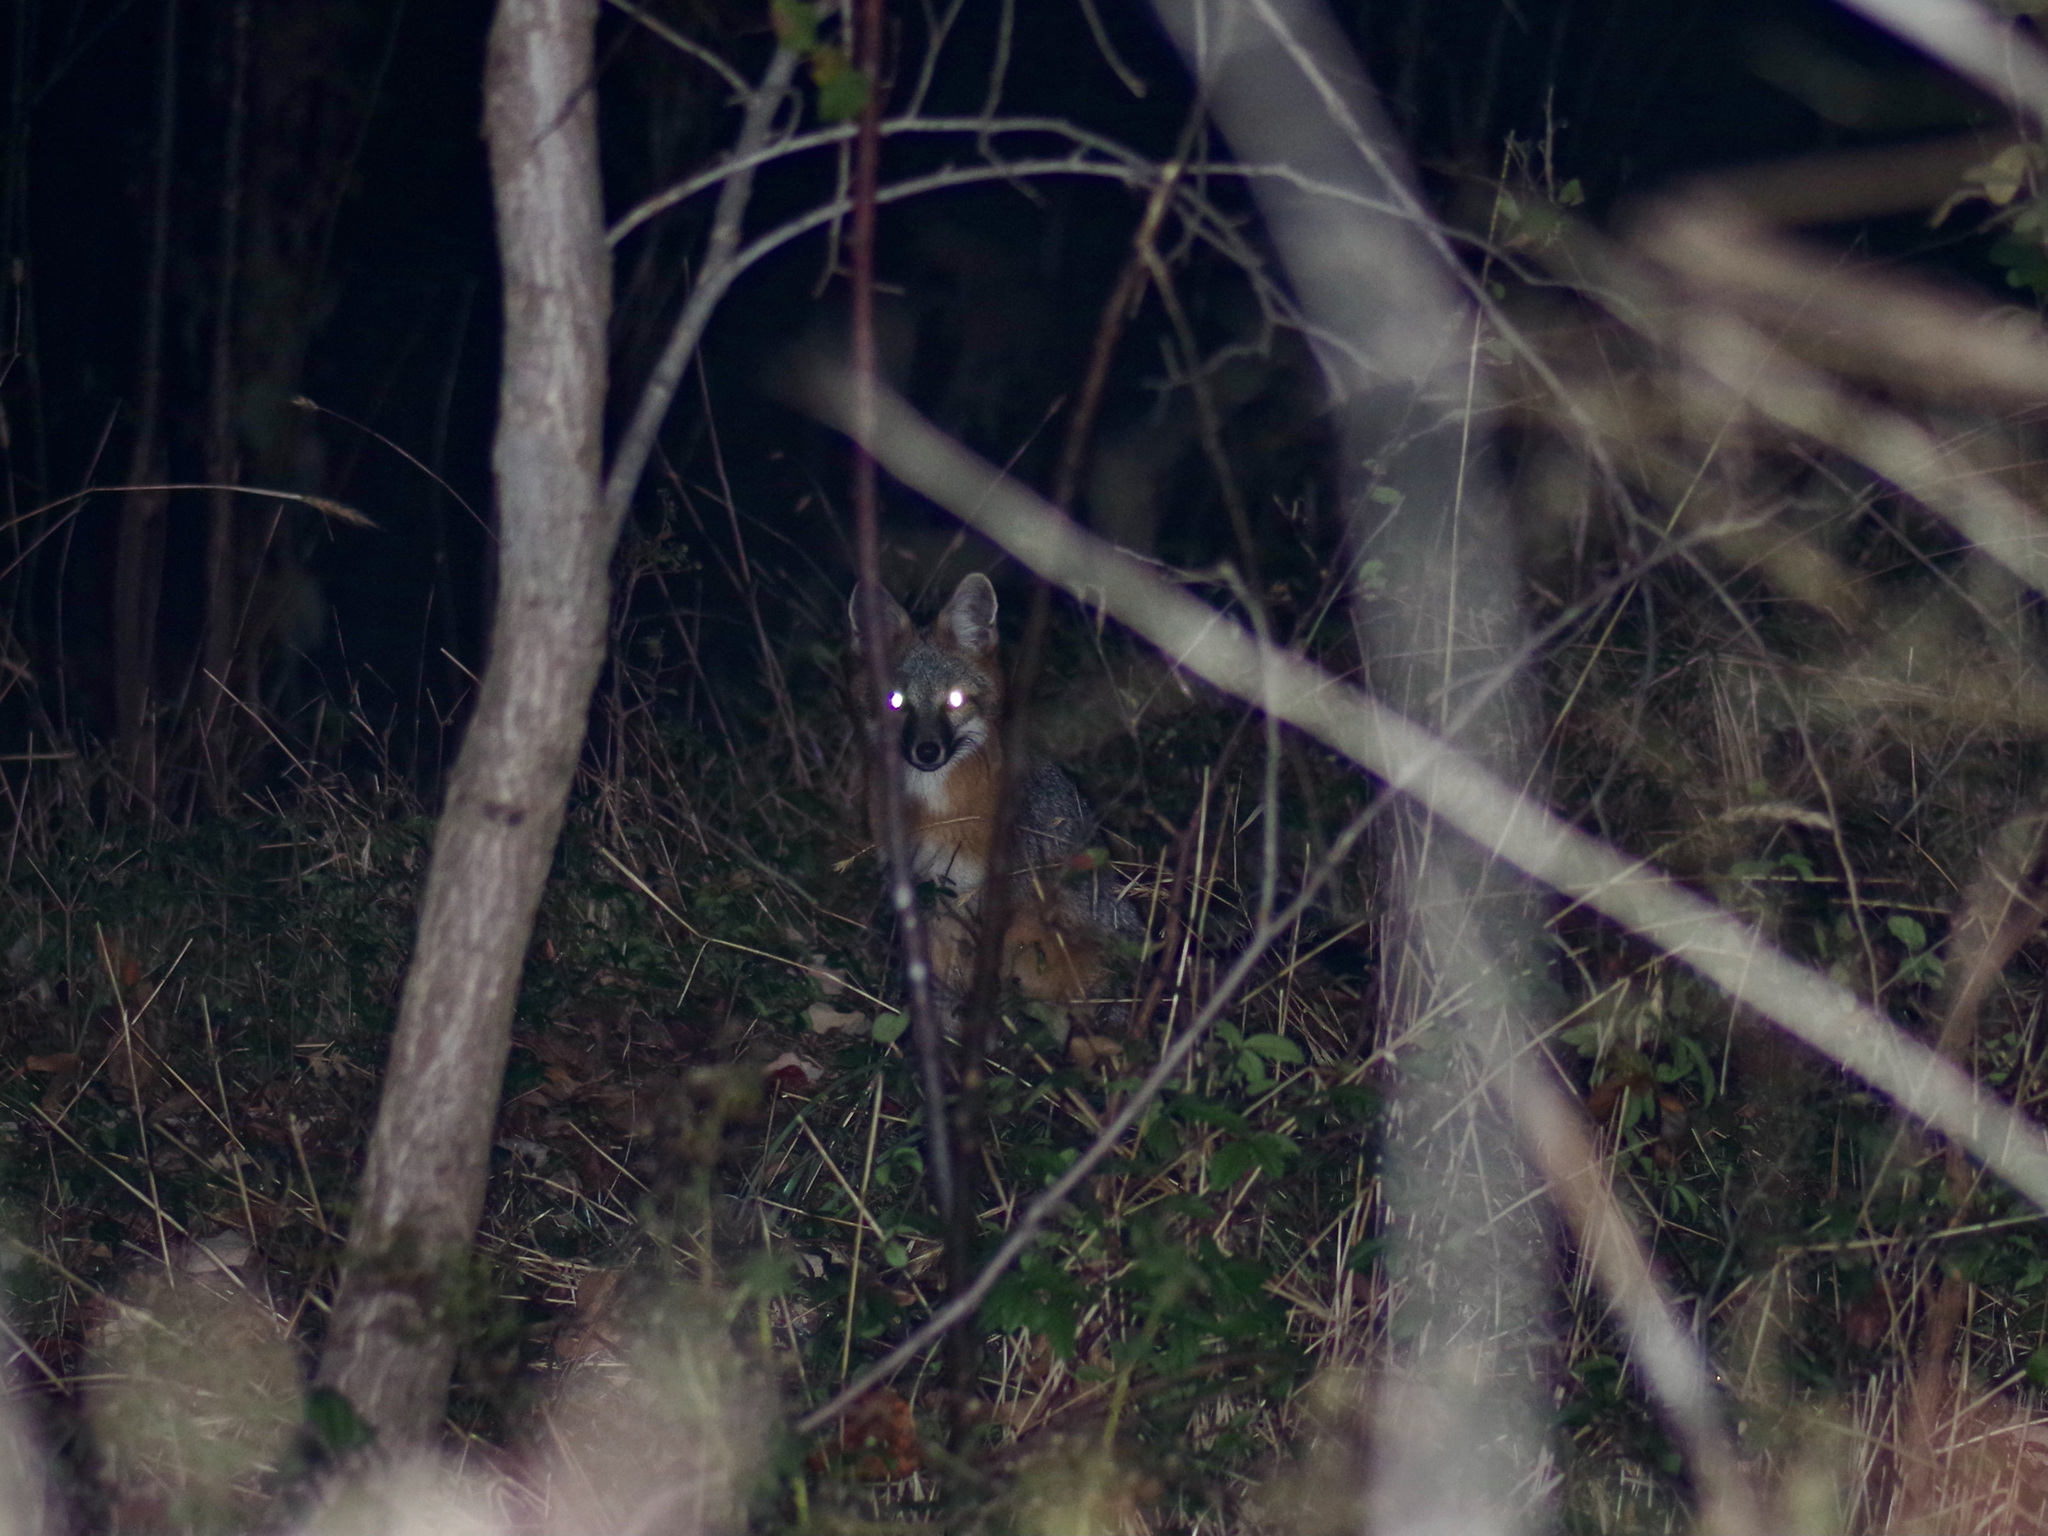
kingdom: Animalia
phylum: Chordata
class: Mammalia
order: Carnivora
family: Canidae
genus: Urocyon
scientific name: Urocyon cinereoargenteus
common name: Gray fox
